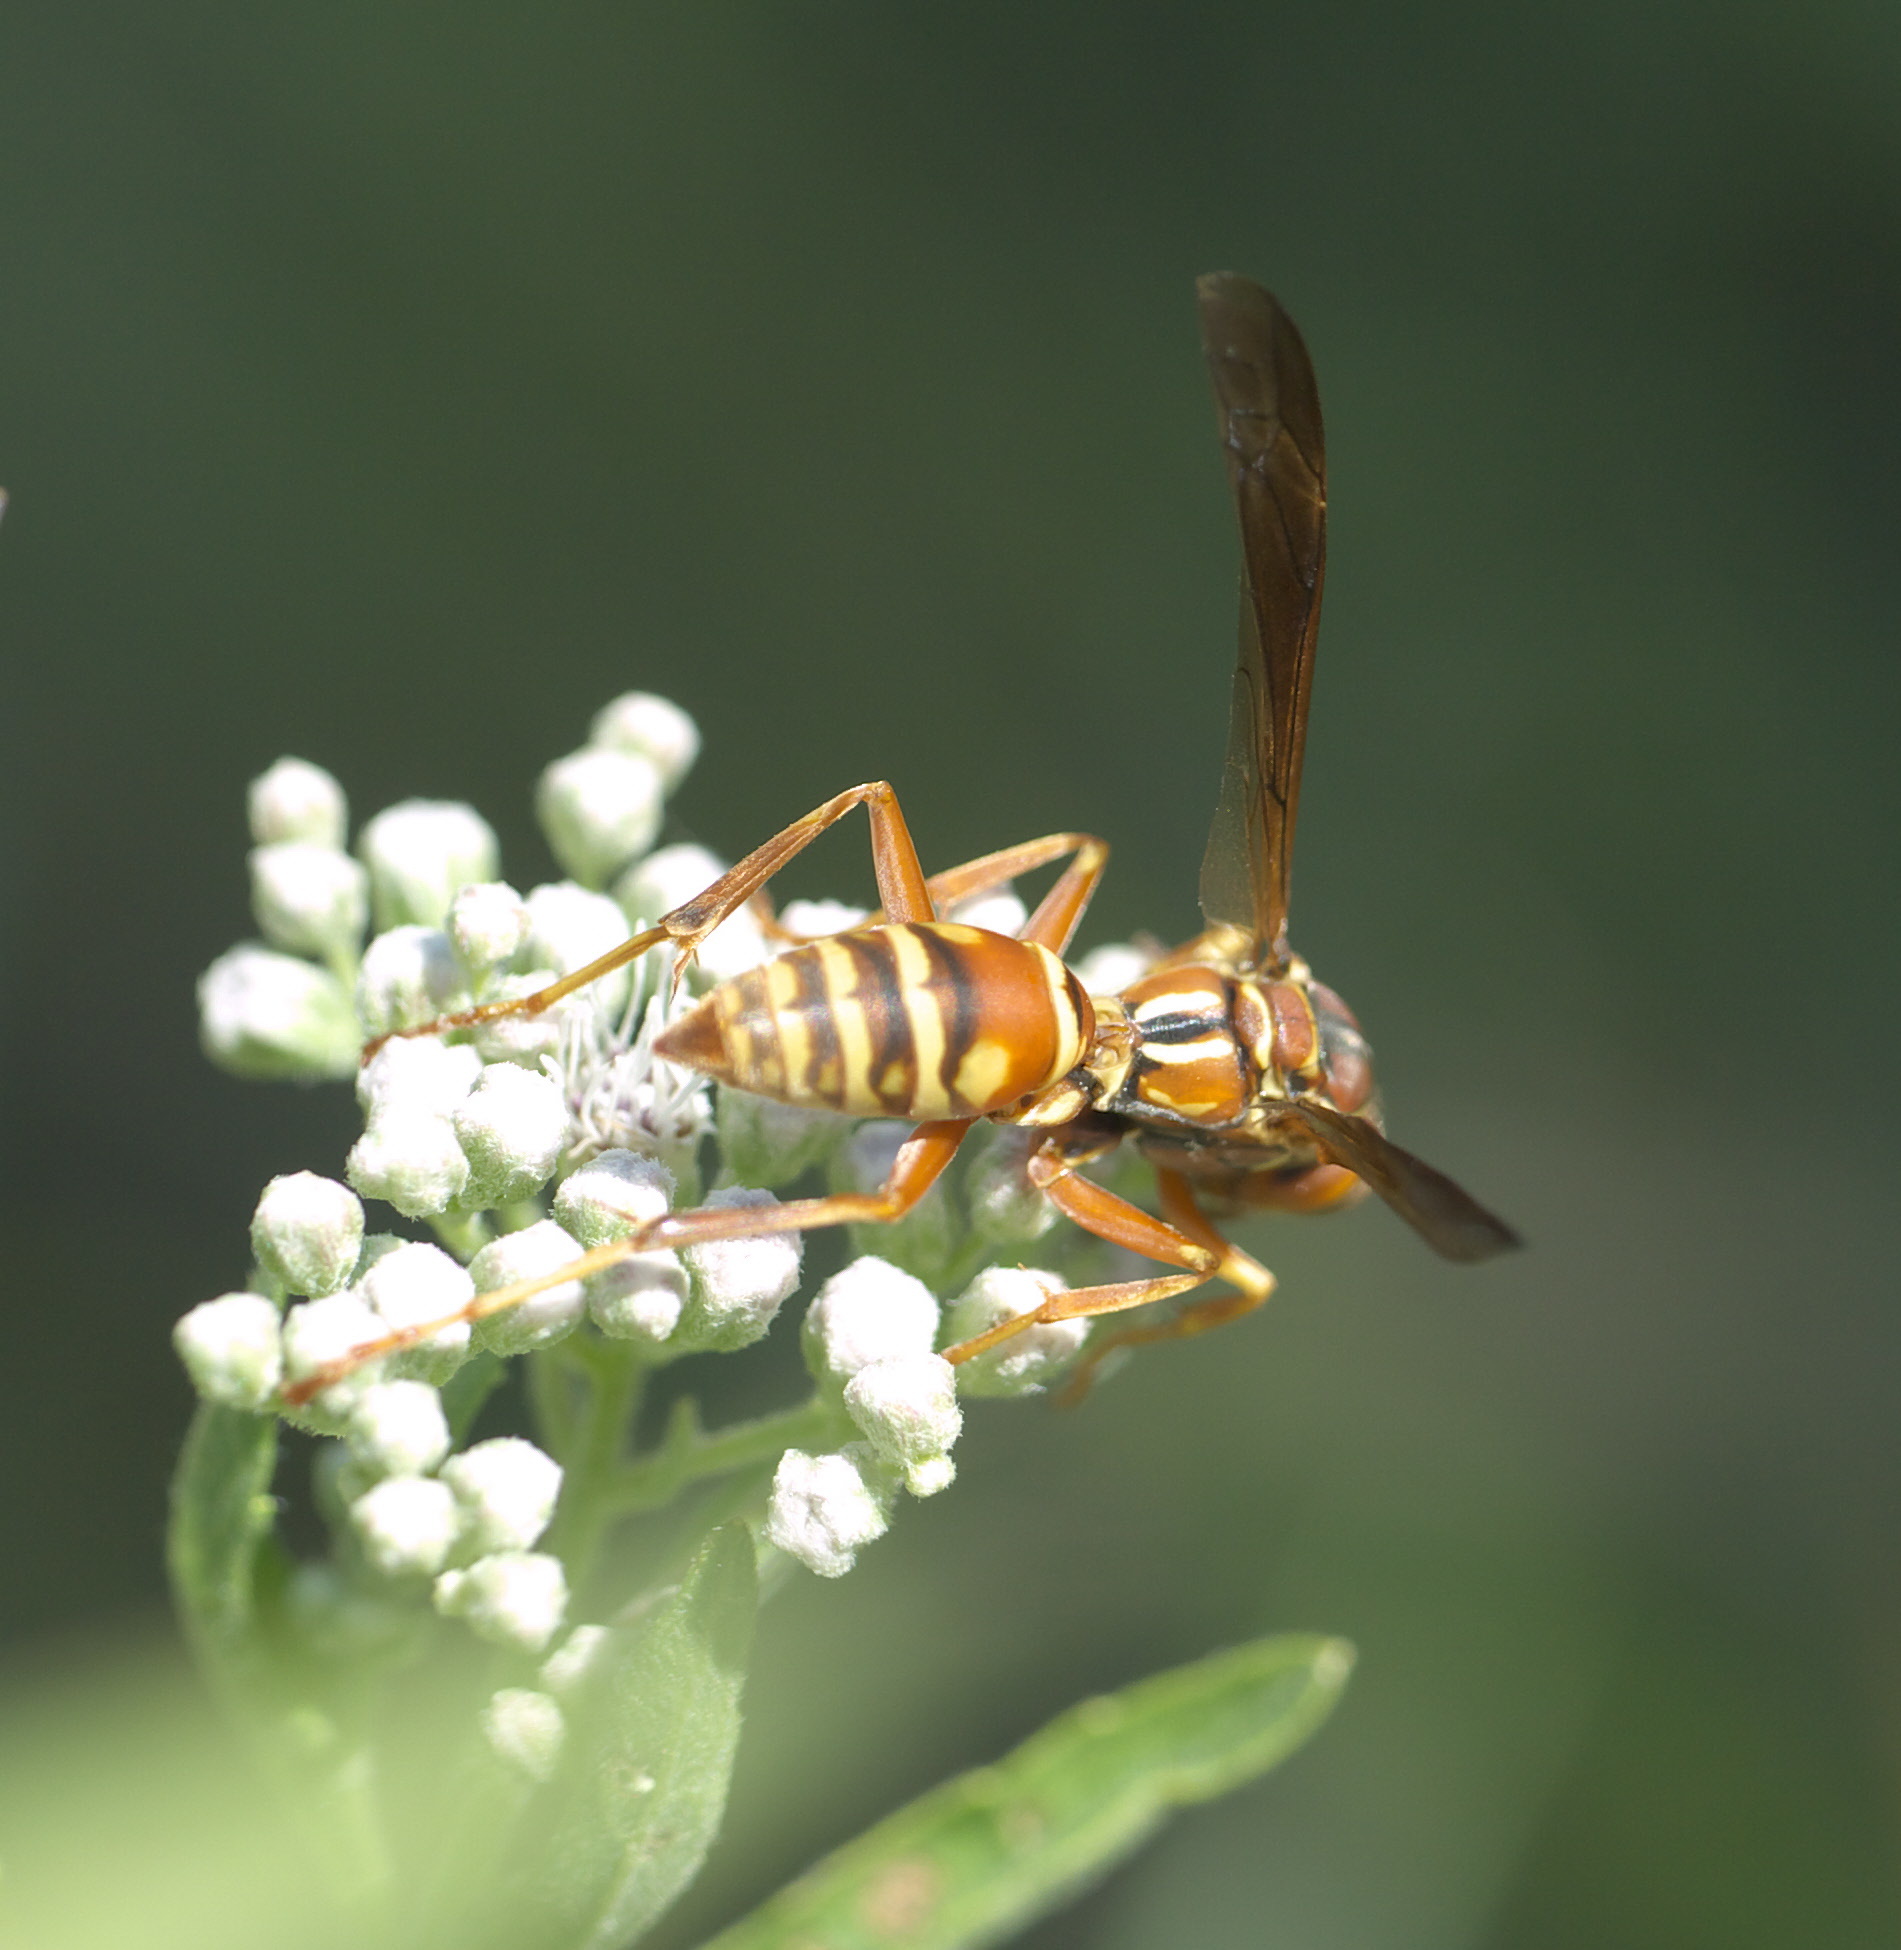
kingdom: Animalia
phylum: Arthropoda
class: Insecta
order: Hymenoptera
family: Vespidae
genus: Fuscopolistes
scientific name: Fuscopolistes
